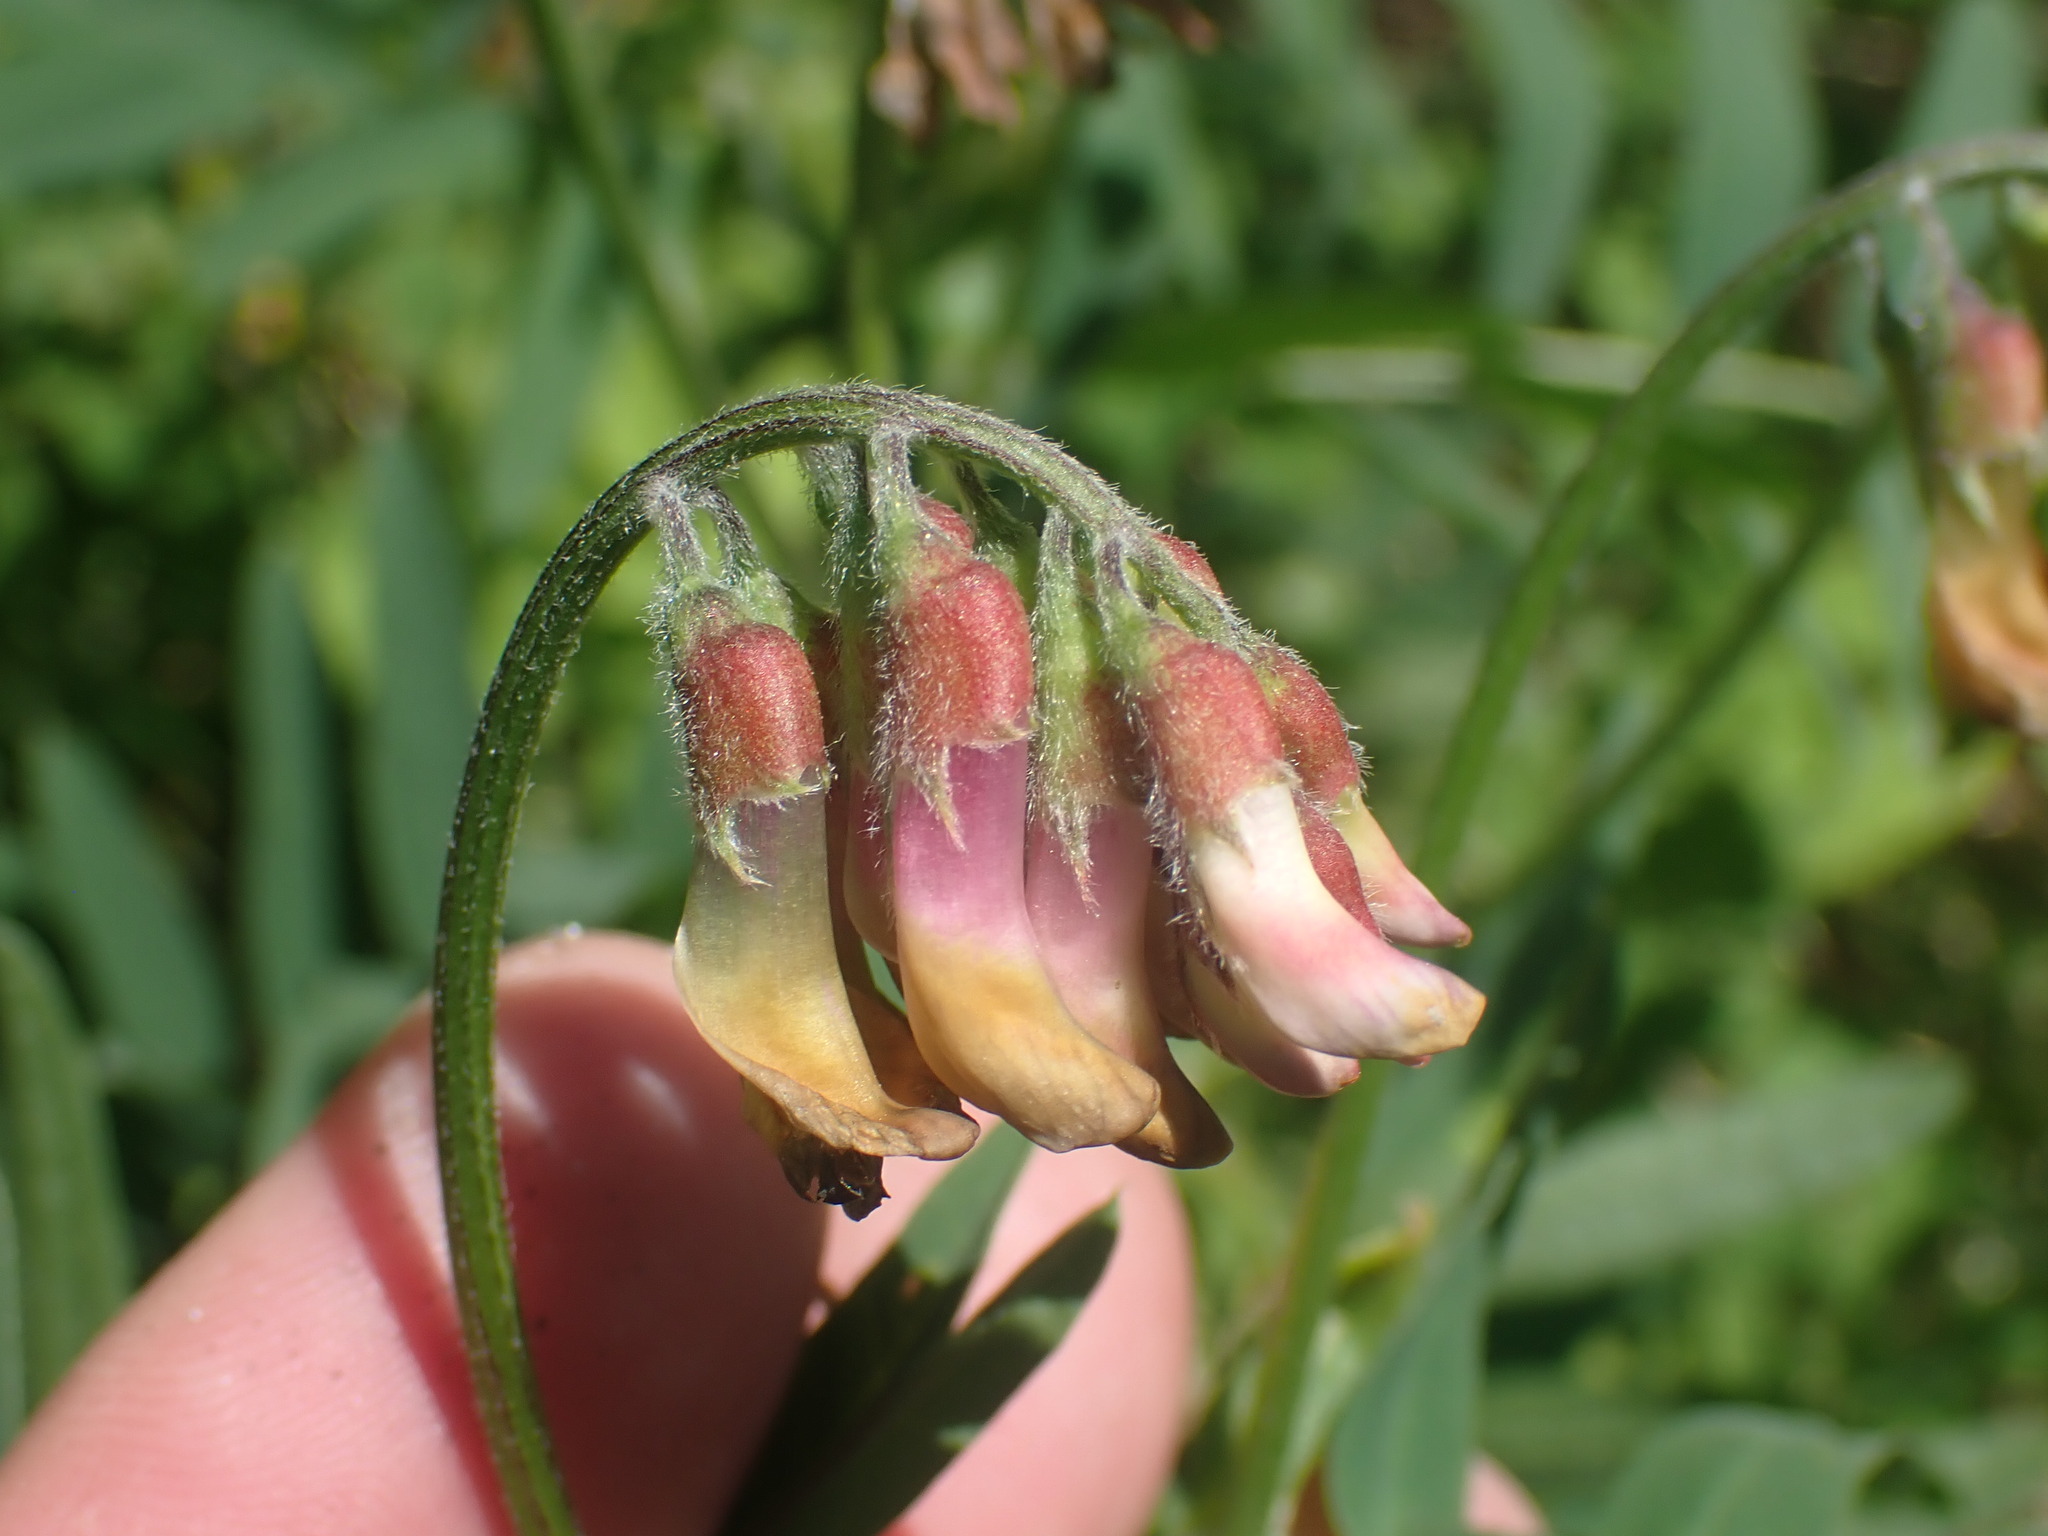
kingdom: Plantae
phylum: Tracheophyta
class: Magnoliopsida
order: Fabales
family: Fabaceae
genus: Vicia
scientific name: Vicia
